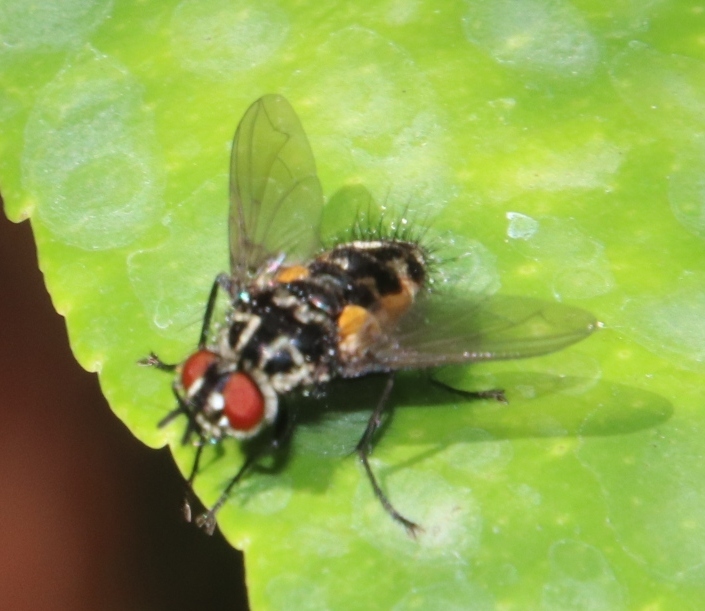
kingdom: Animalia
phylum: Arthropoda
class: Insecta
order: Diptera
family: Tachinidae
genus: Ossidingia
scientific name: Ossidingia
